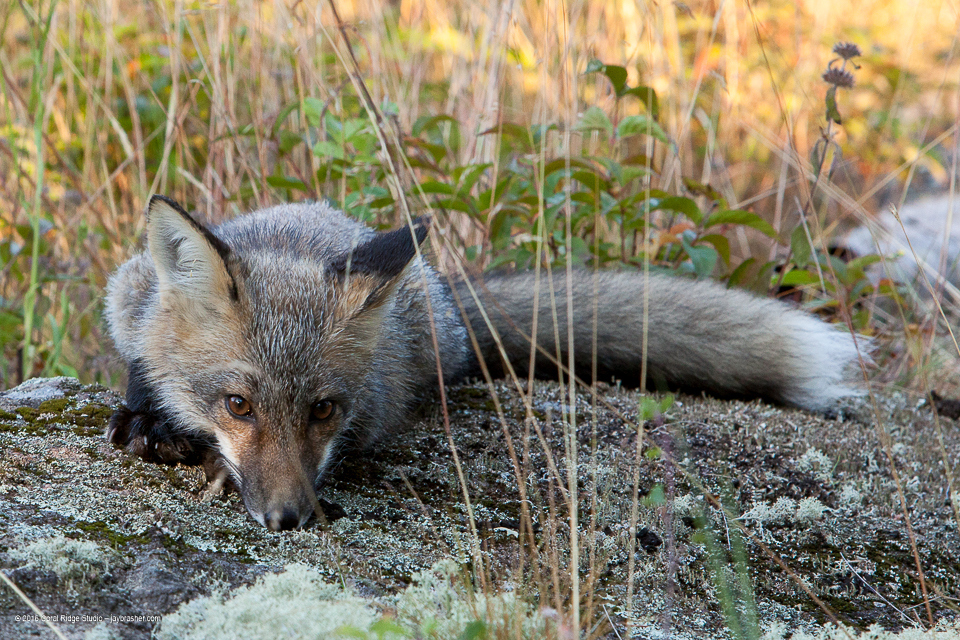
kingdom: Animalia
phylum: Chordata
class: Mammalia
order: Carnivora
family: Canidae
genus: Vulpes
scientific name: Vulpes vulpes
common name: Red fox
